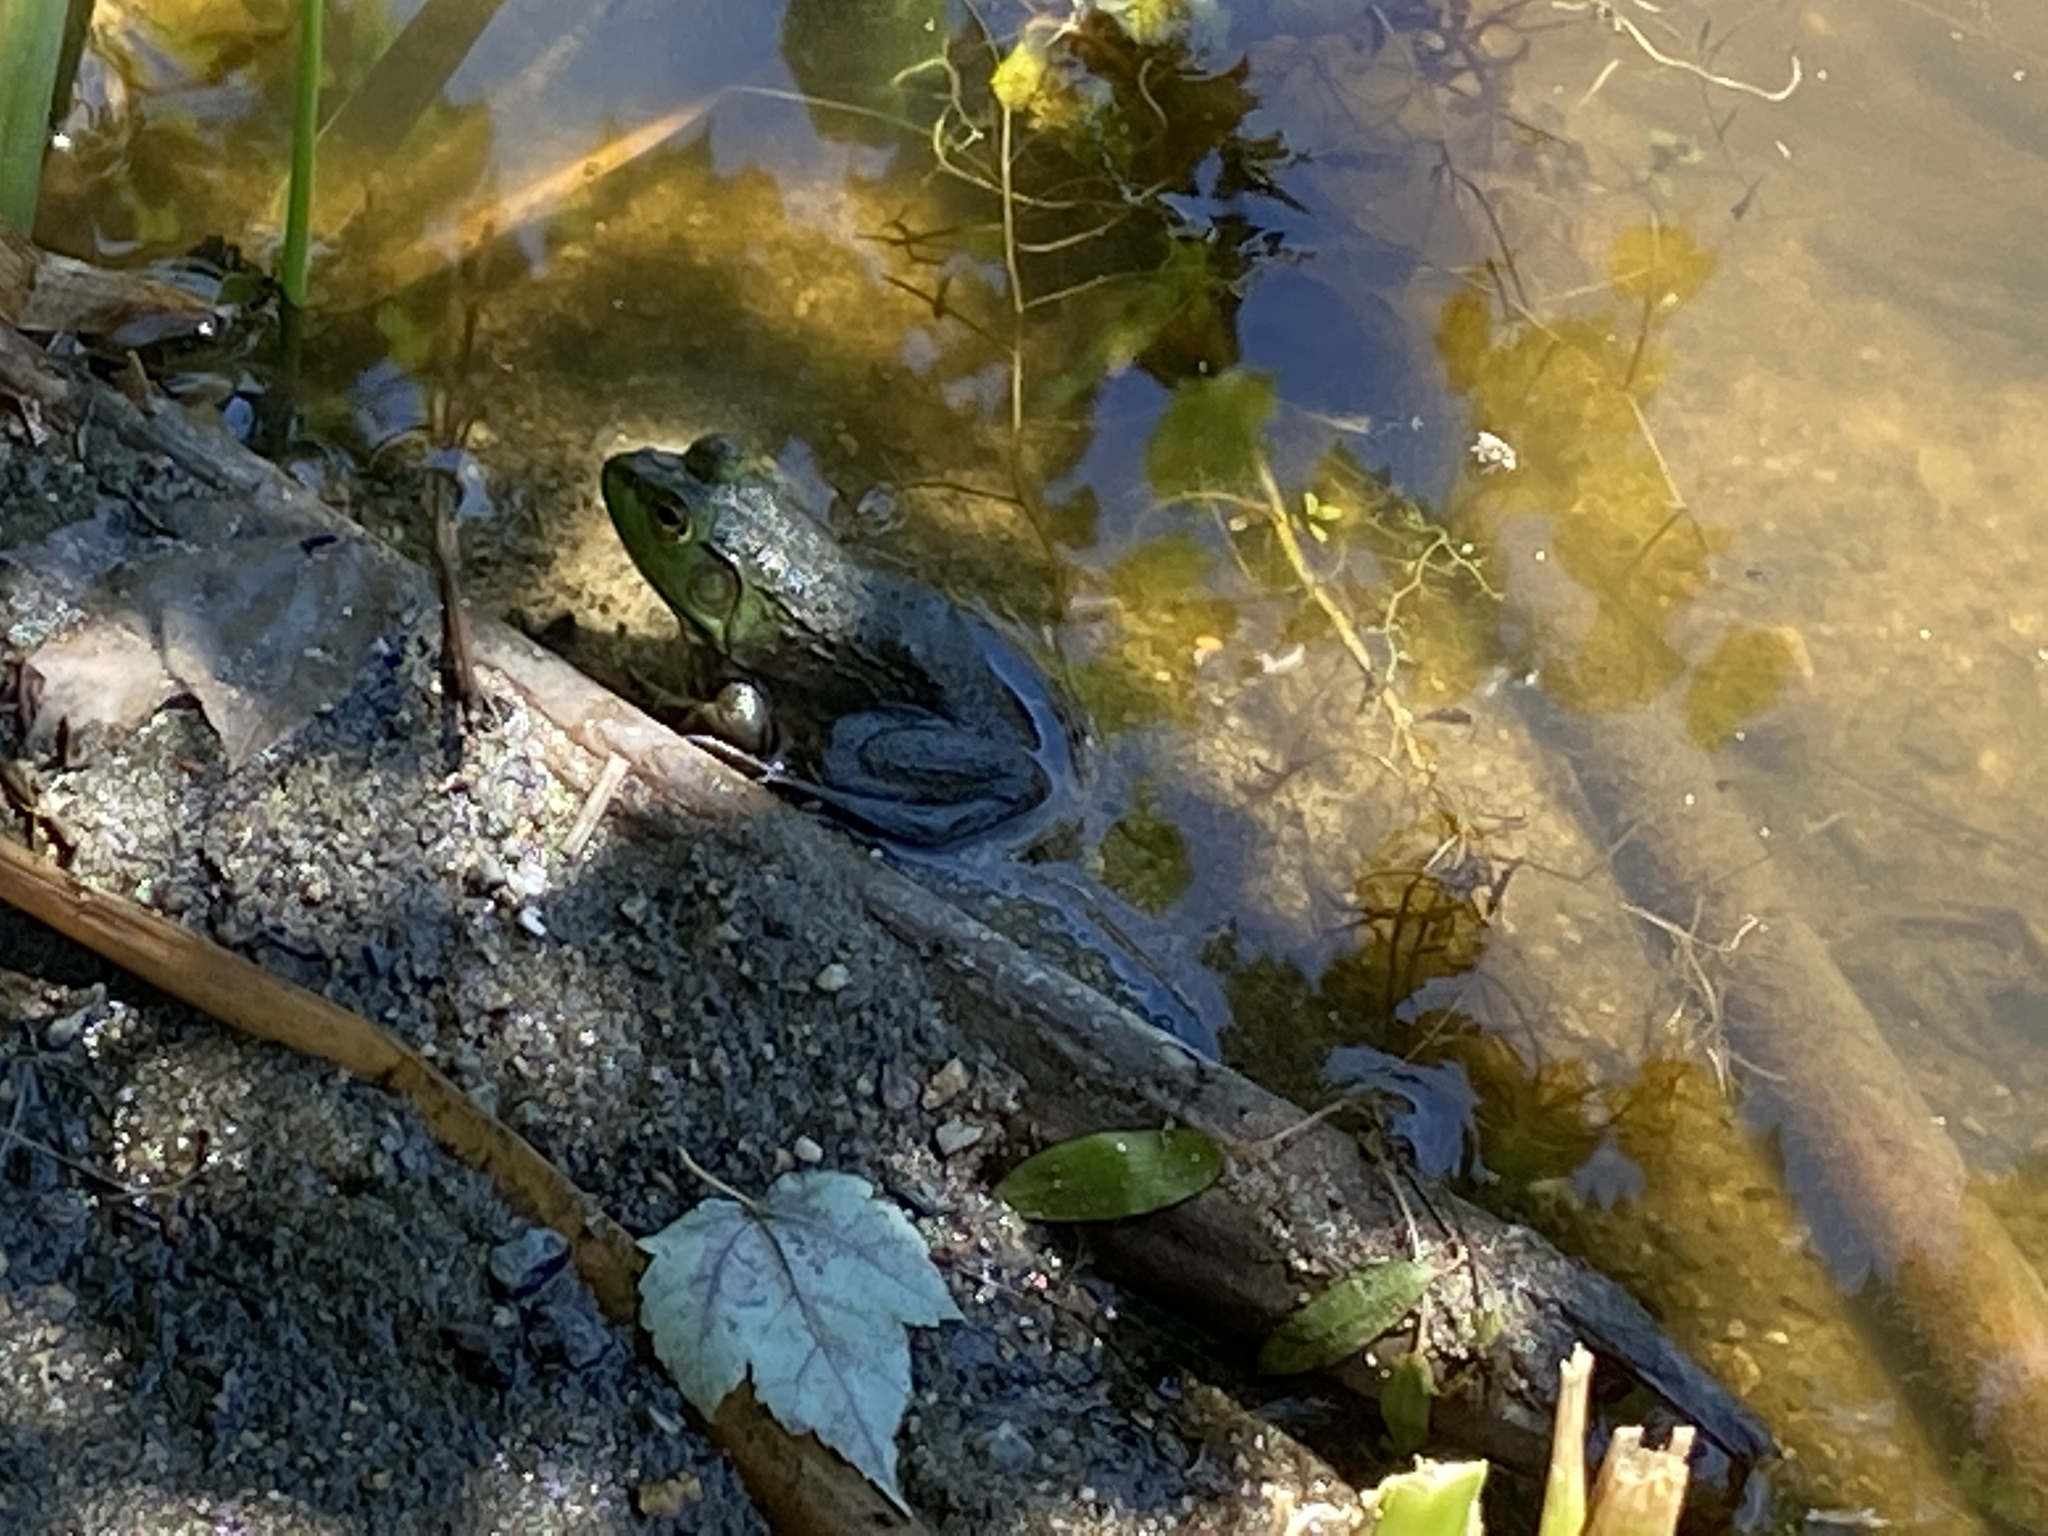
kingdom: Animalia
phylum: Chordata
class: Amphibia
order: Anura
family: Ranidae
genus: Lithobates
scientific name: Lithobates catesbeianus
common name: American bullfrog
